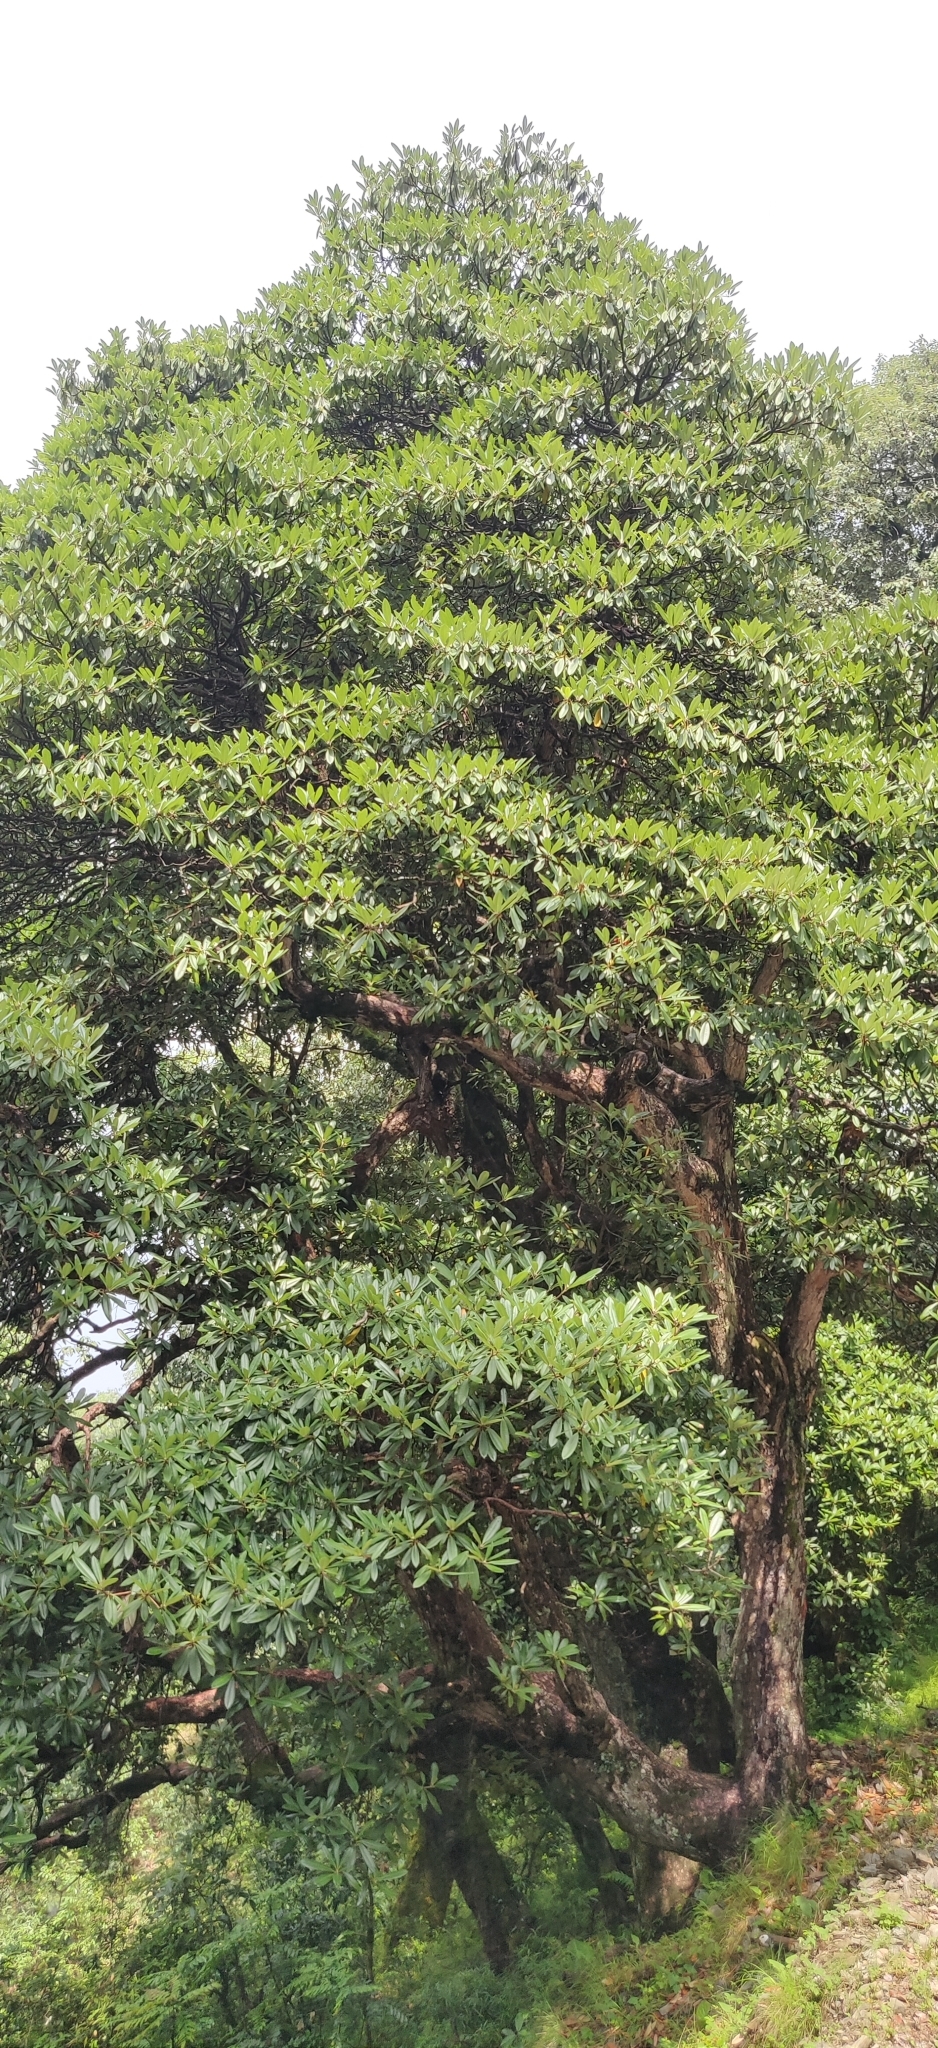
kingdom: Plantae
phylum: Tracheophyta
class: Magnoliopsida
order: Ericales
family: Ericaceae
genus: Rhododendron
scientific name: Rhododendron arboreum
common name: Tree rhododendron
